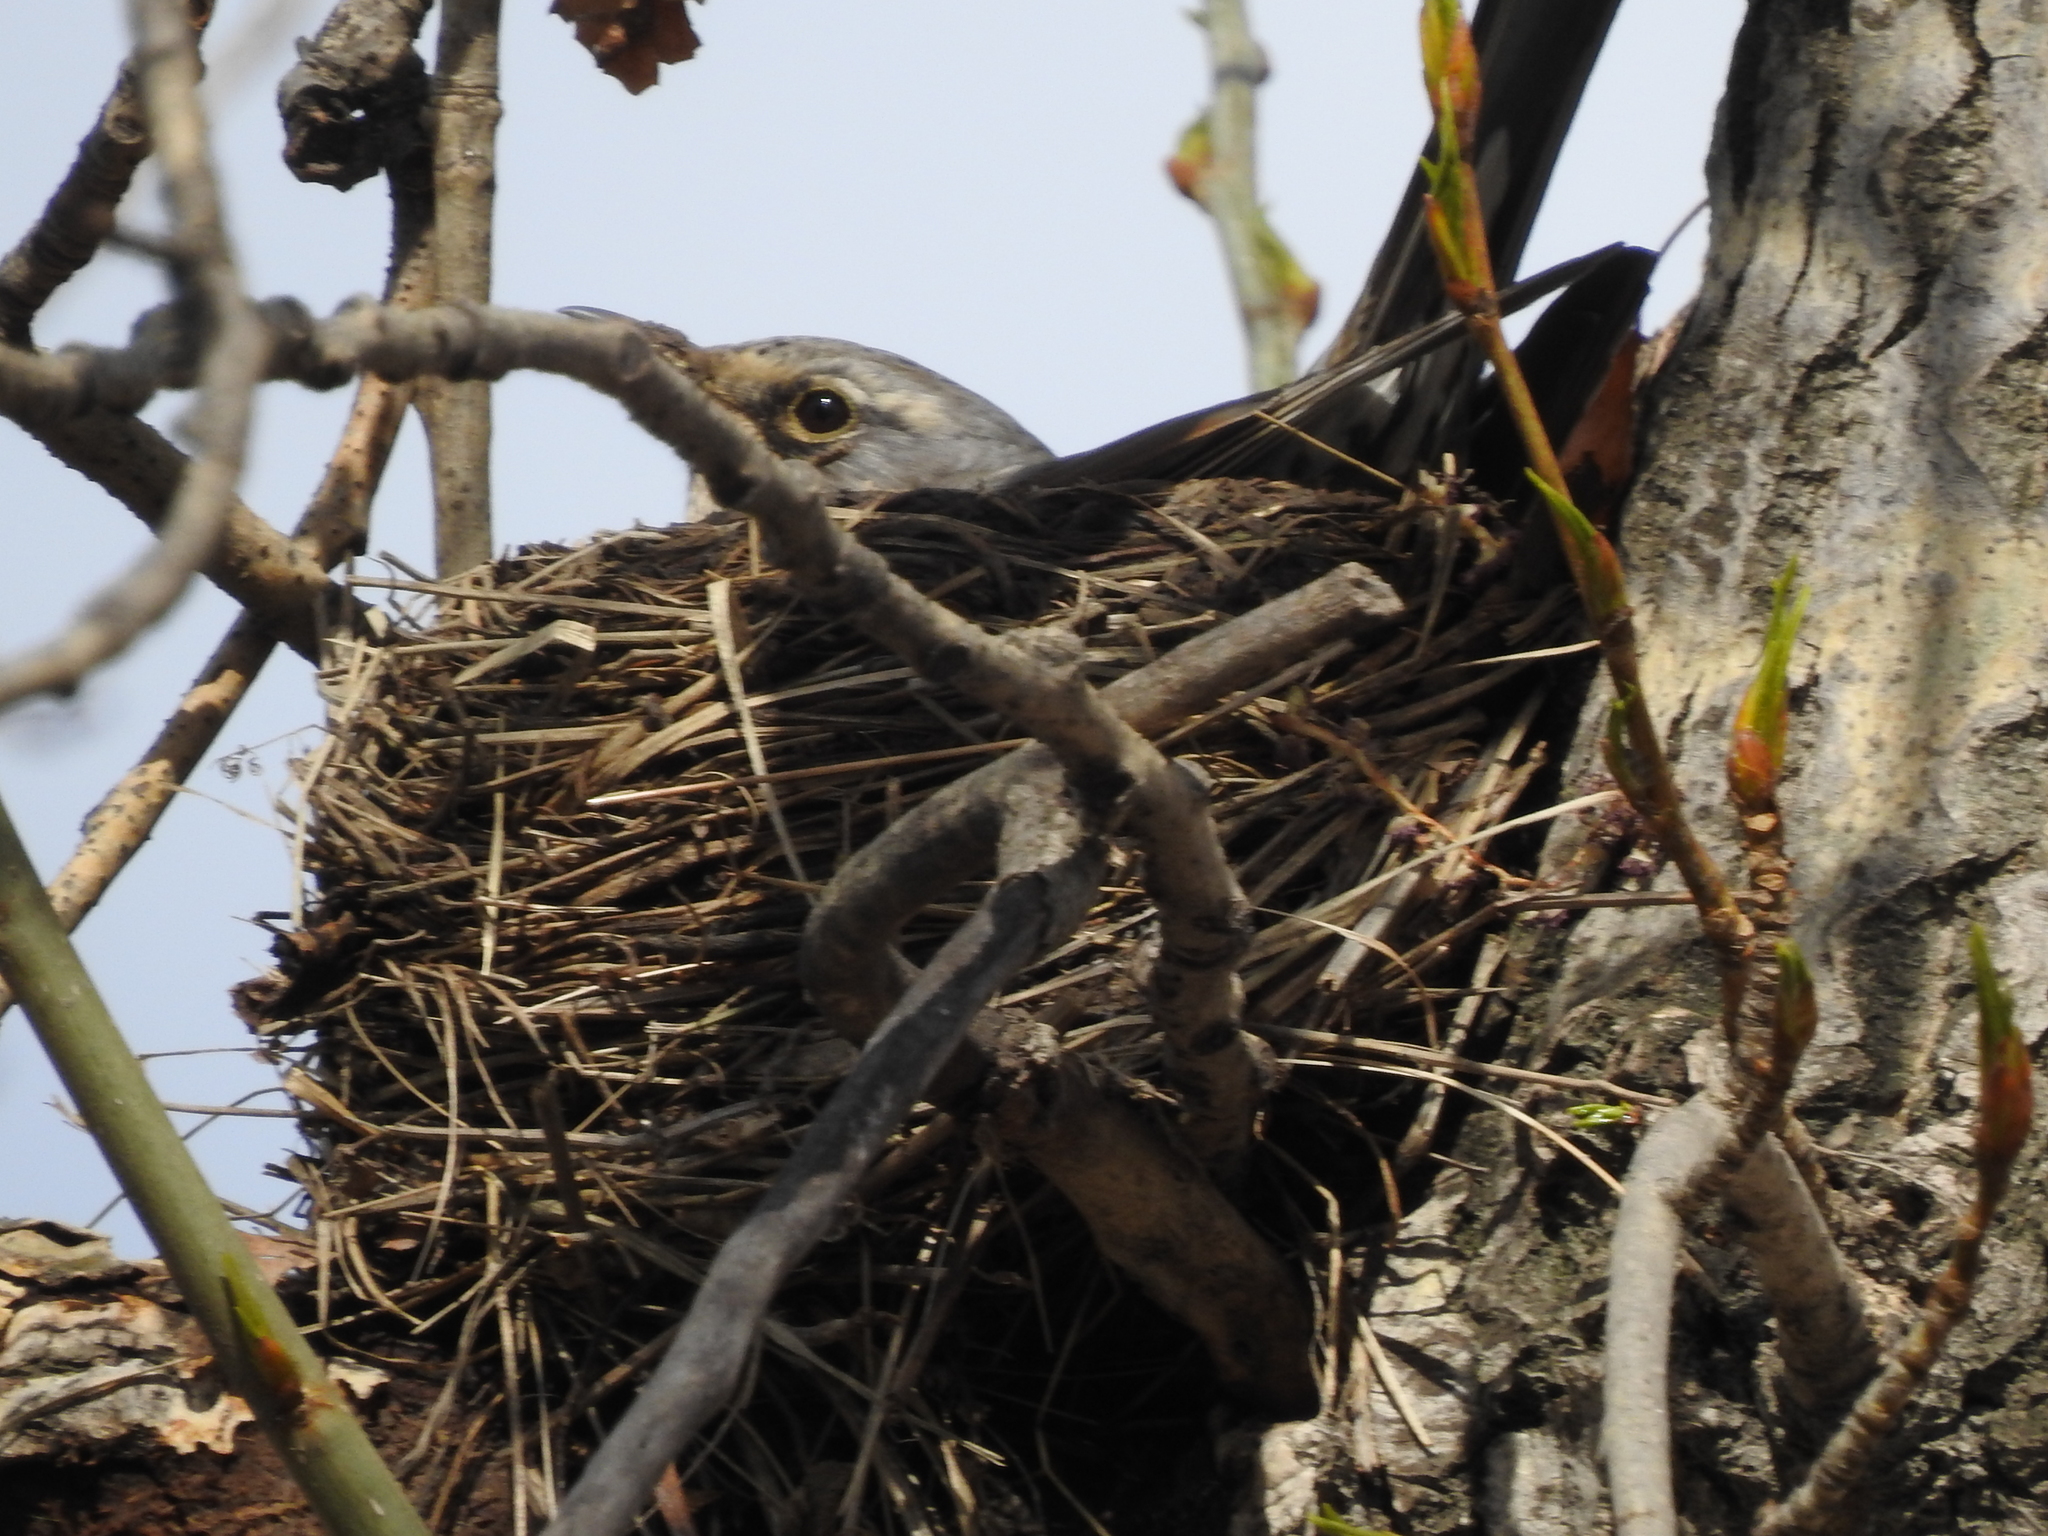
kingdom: Animalia
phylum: Chordata
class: Aves
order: Passeriformes
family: Turdidae
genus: Turdus
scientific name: Turdus pilaris
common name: Fieldfare
